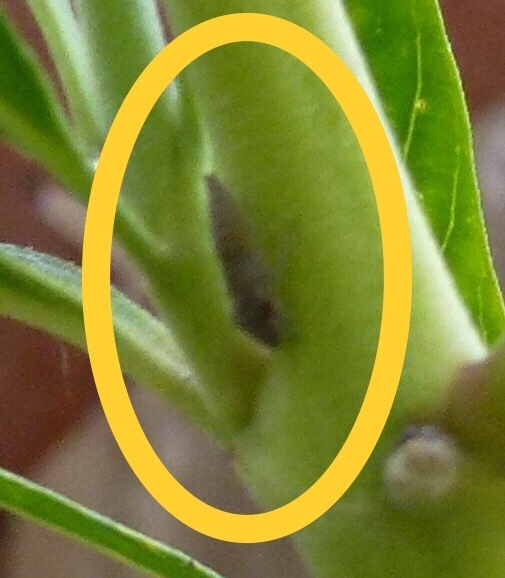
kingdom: Animalia
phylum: Arthropoda
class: Insecta
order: Hemiptera
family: Cicadellidae
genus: Homalodisca
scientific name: Homalodisca
